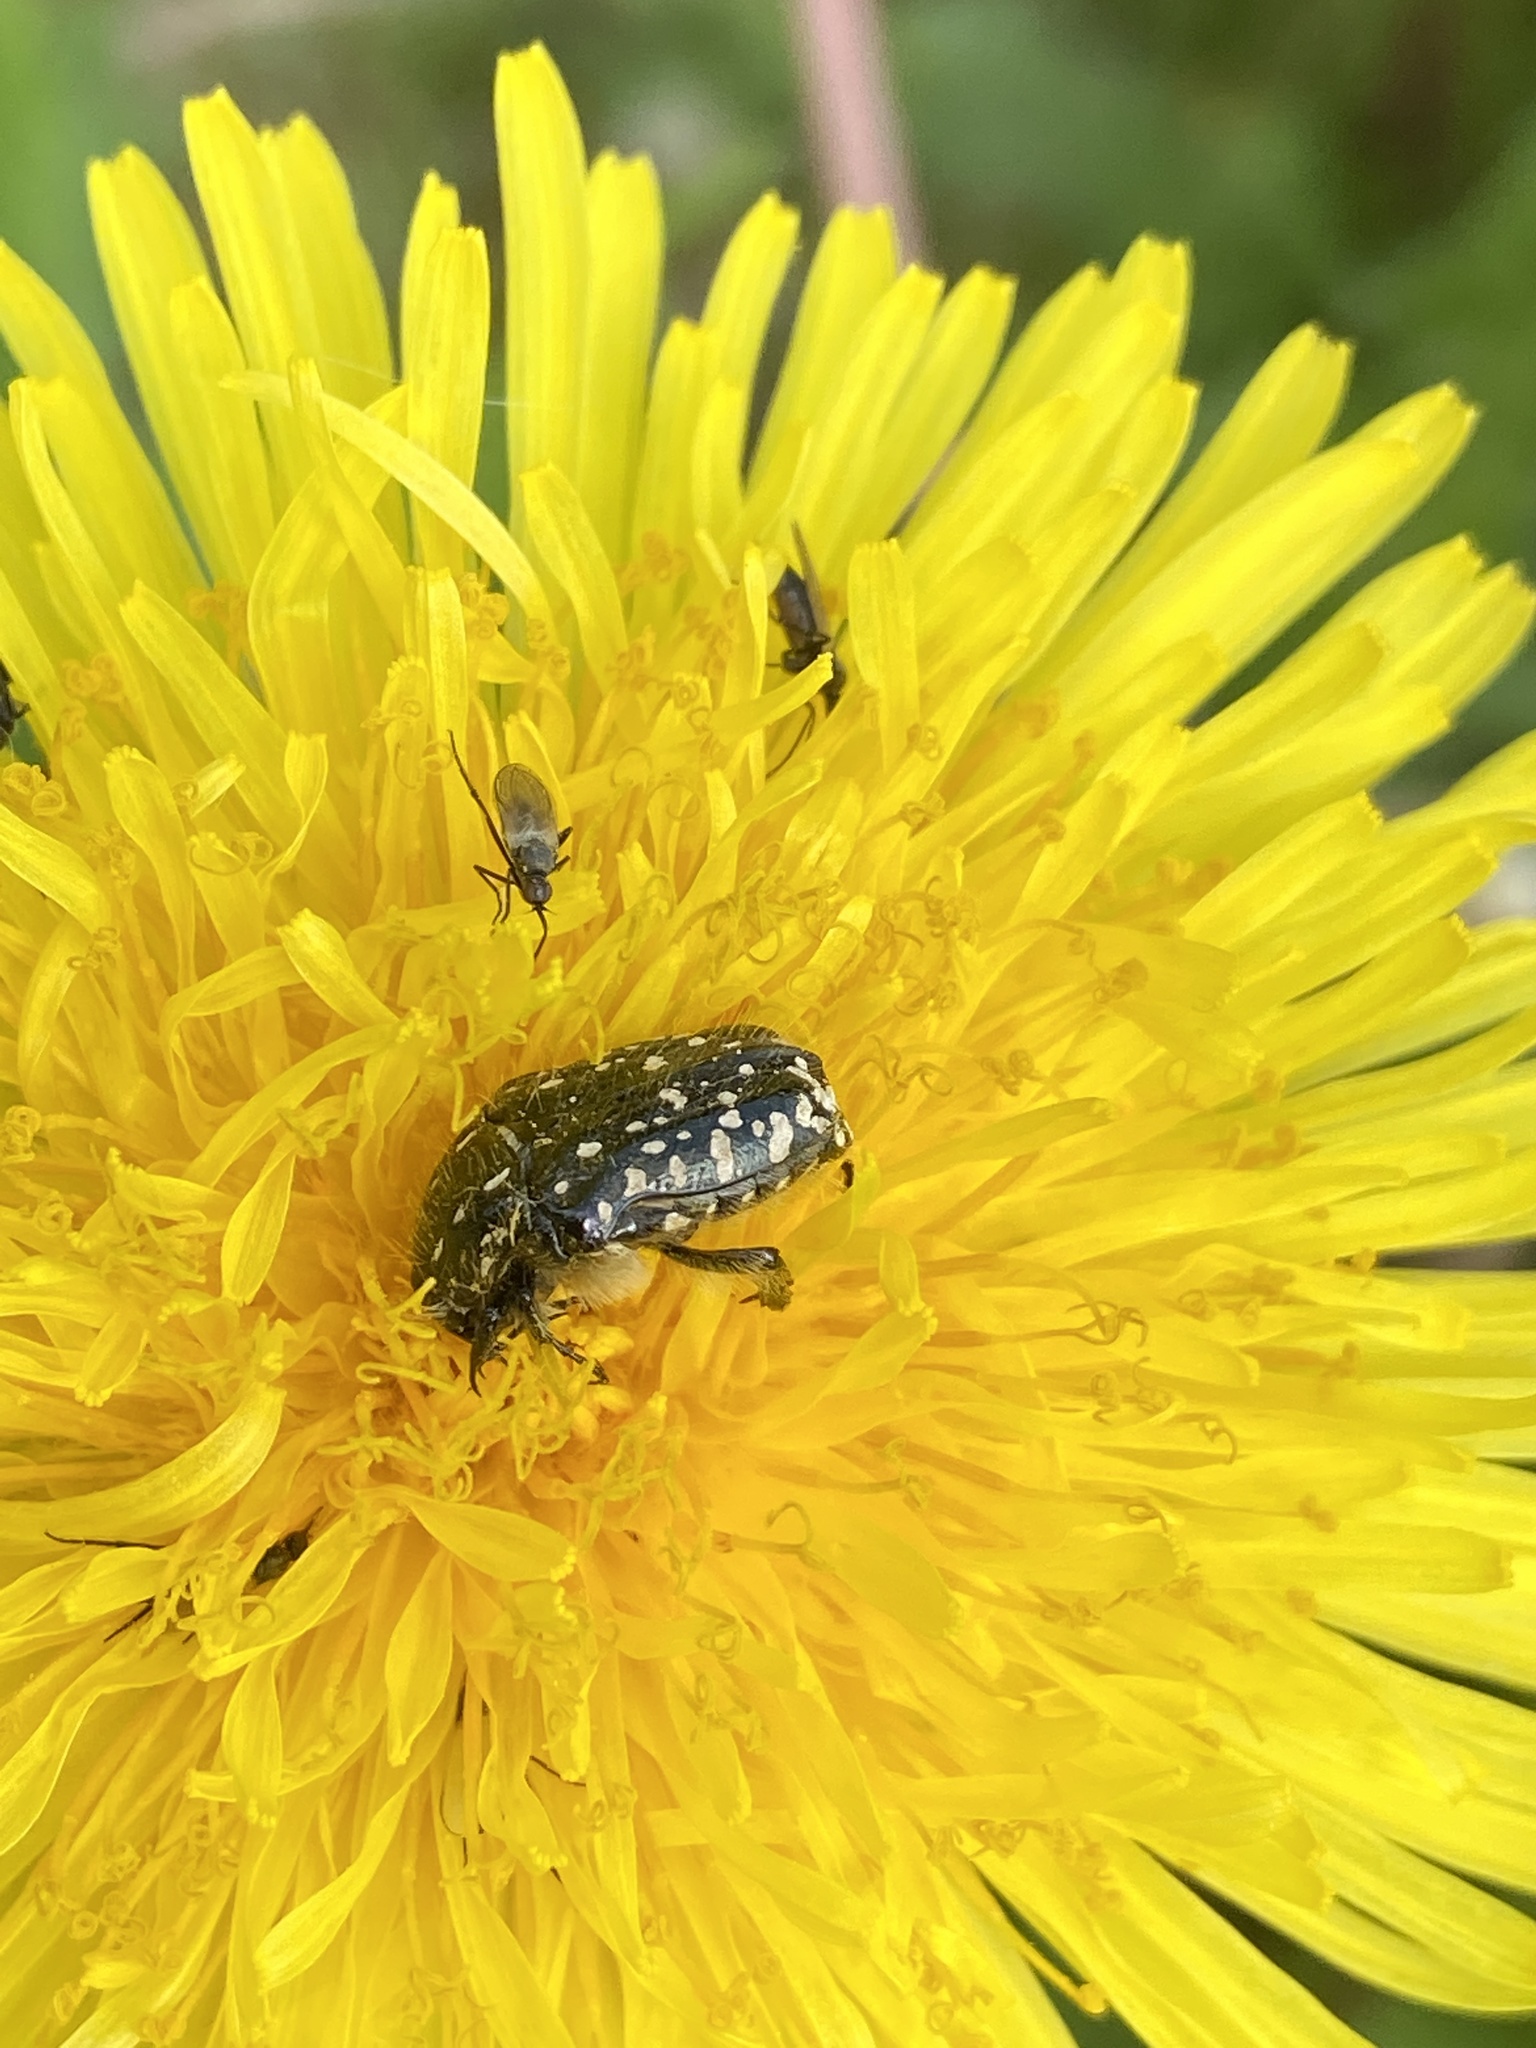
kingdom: Animalia
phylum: Arthropoda
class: Insecta
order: Coleoptera
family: Scarabaeidae
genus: Oxythyrea
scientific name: Oxythyrea funesta
